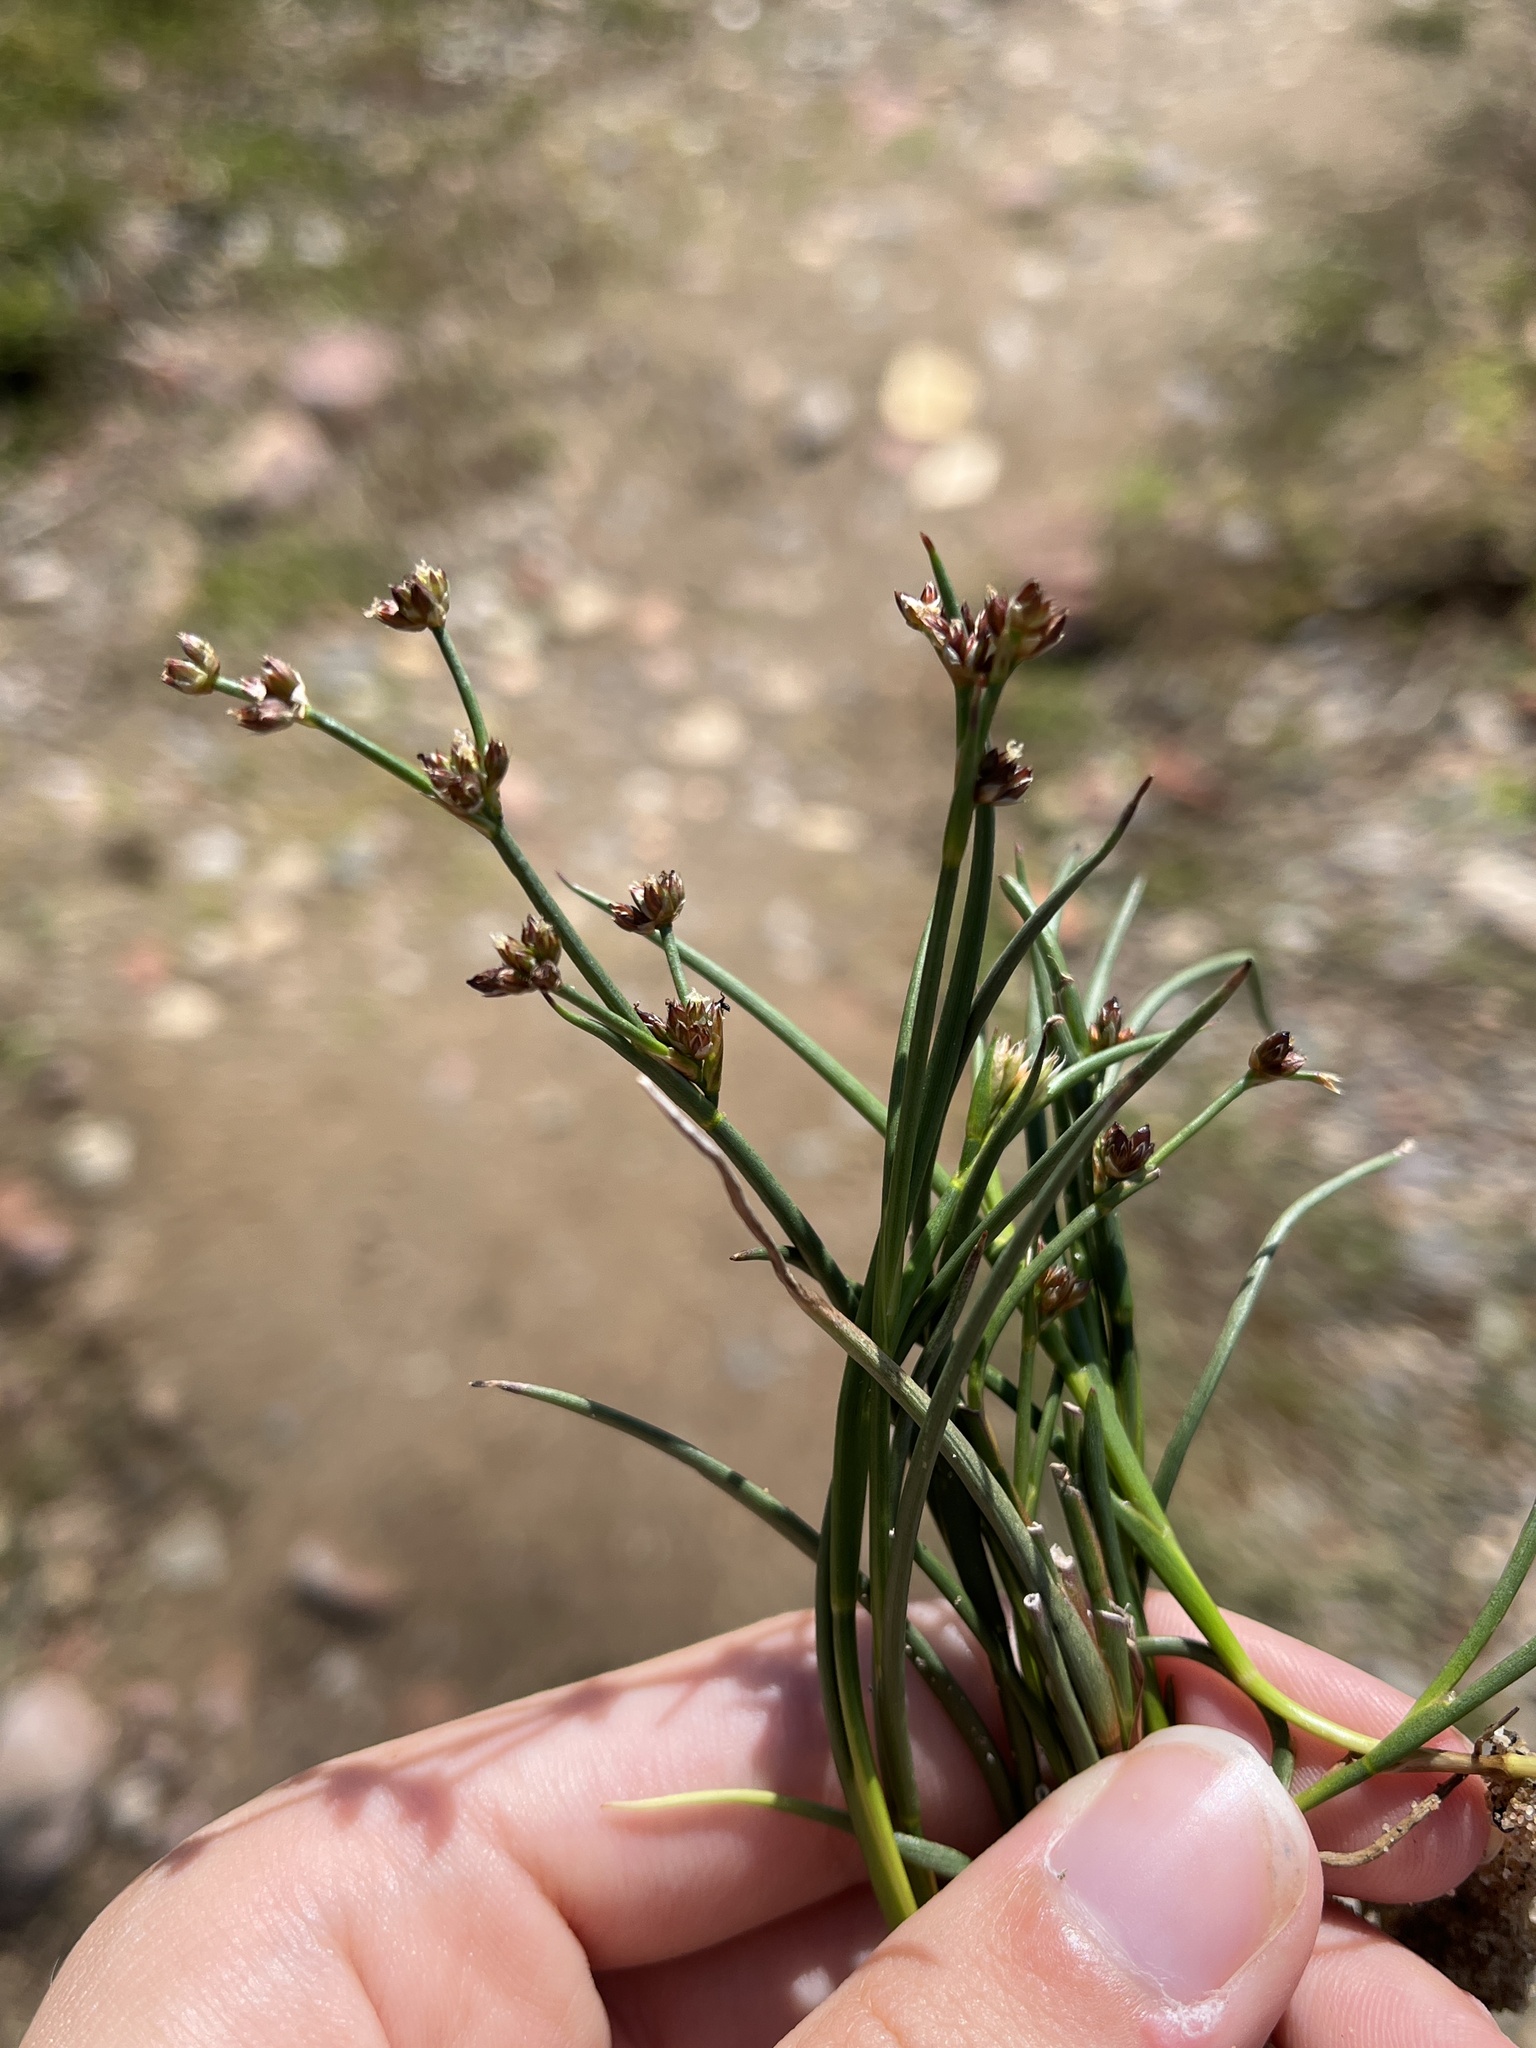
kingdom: Plantae
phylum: Tracheophyta
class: Liliopsida
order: Poales
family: Juncaceae
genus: Juncus
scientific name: Juncus articulatus
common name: Jointed rush
